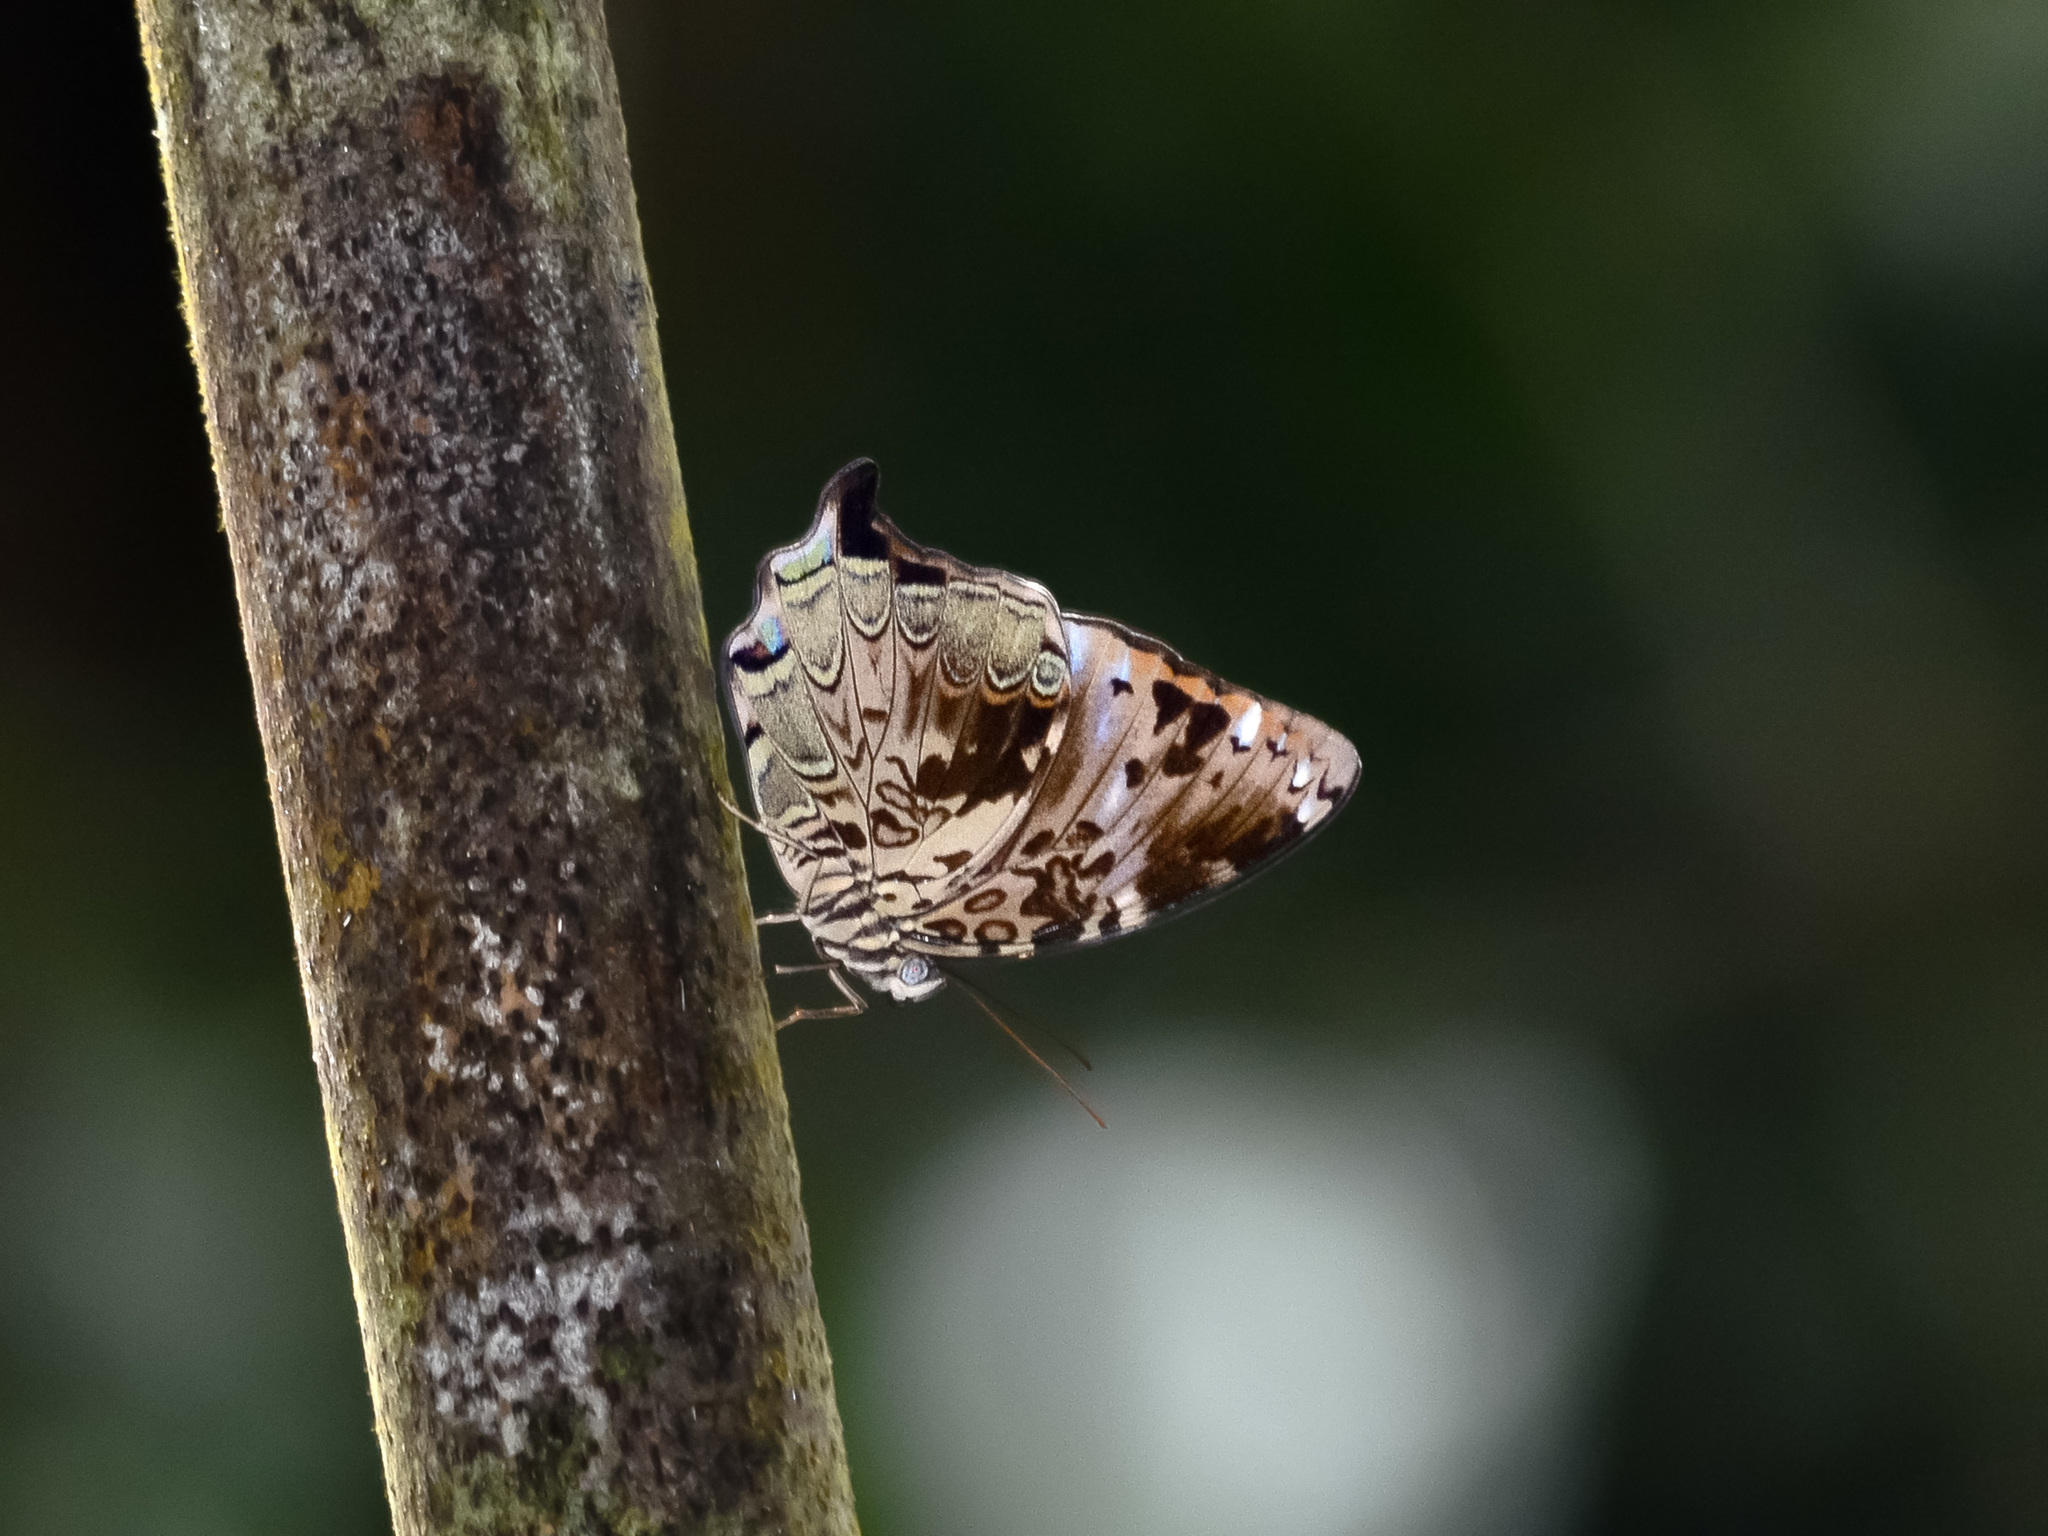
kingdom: Animalia
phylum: Arthropoda
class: Insecta
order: Lepidoptera
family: Nymphalidae
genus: Prothoe
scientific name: Prothoe franck
